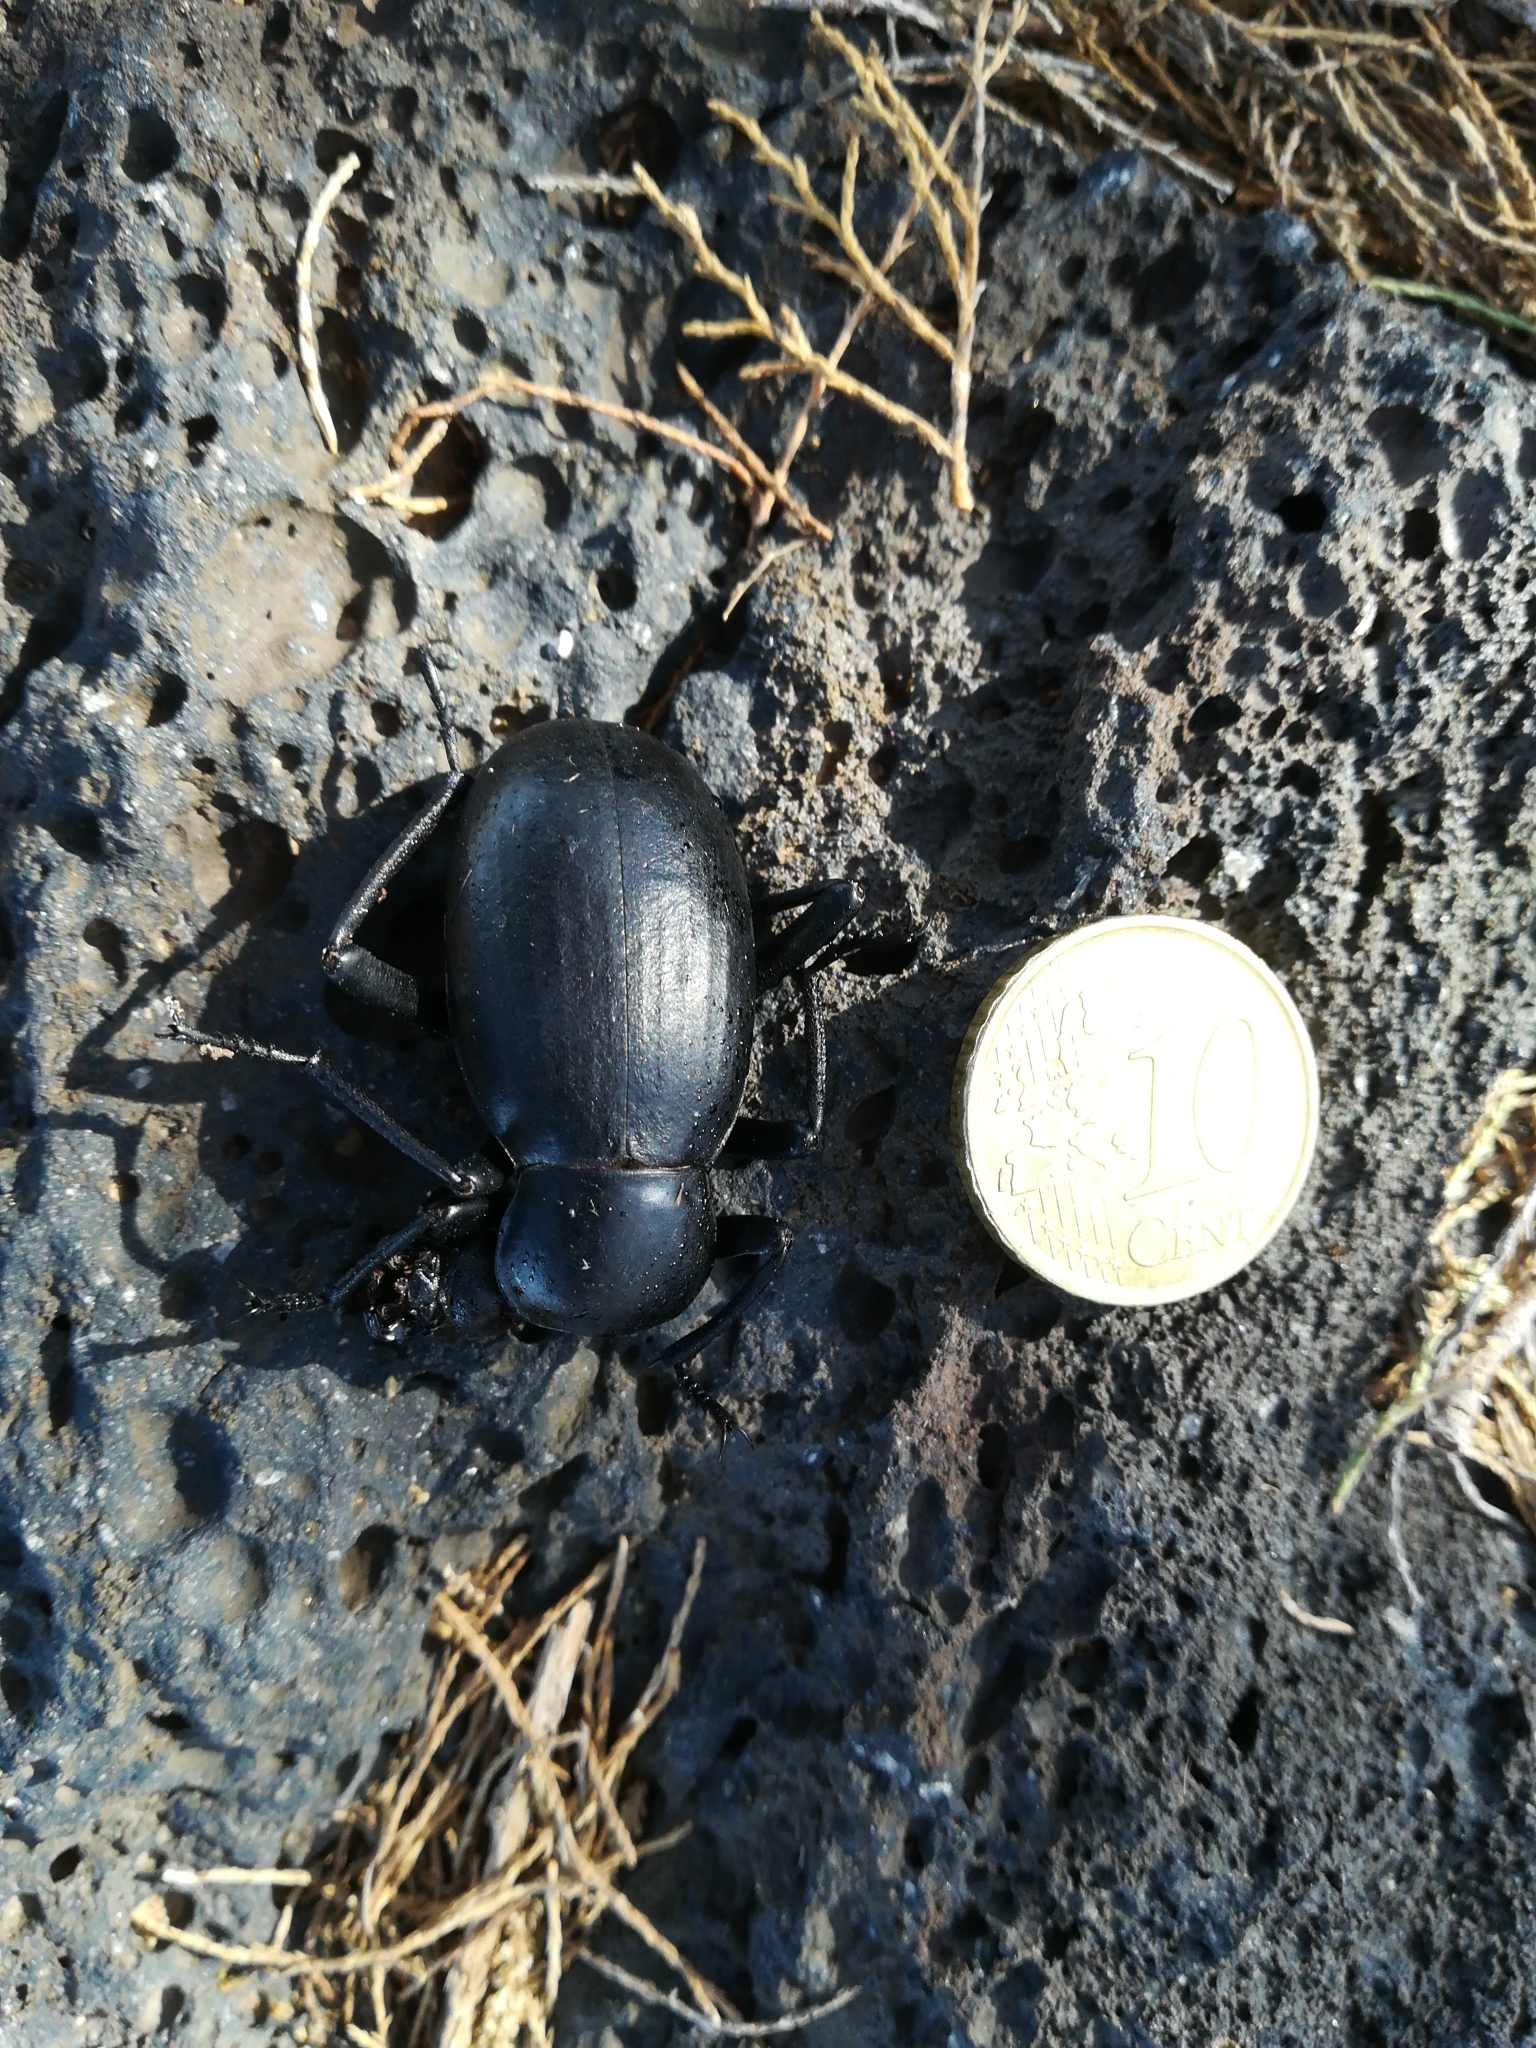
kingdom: Animalia
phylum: Arthropoda
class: Insecta
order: Coleoptera
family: Tenebrionidae
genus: Blaps
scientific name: Blaps gigas
